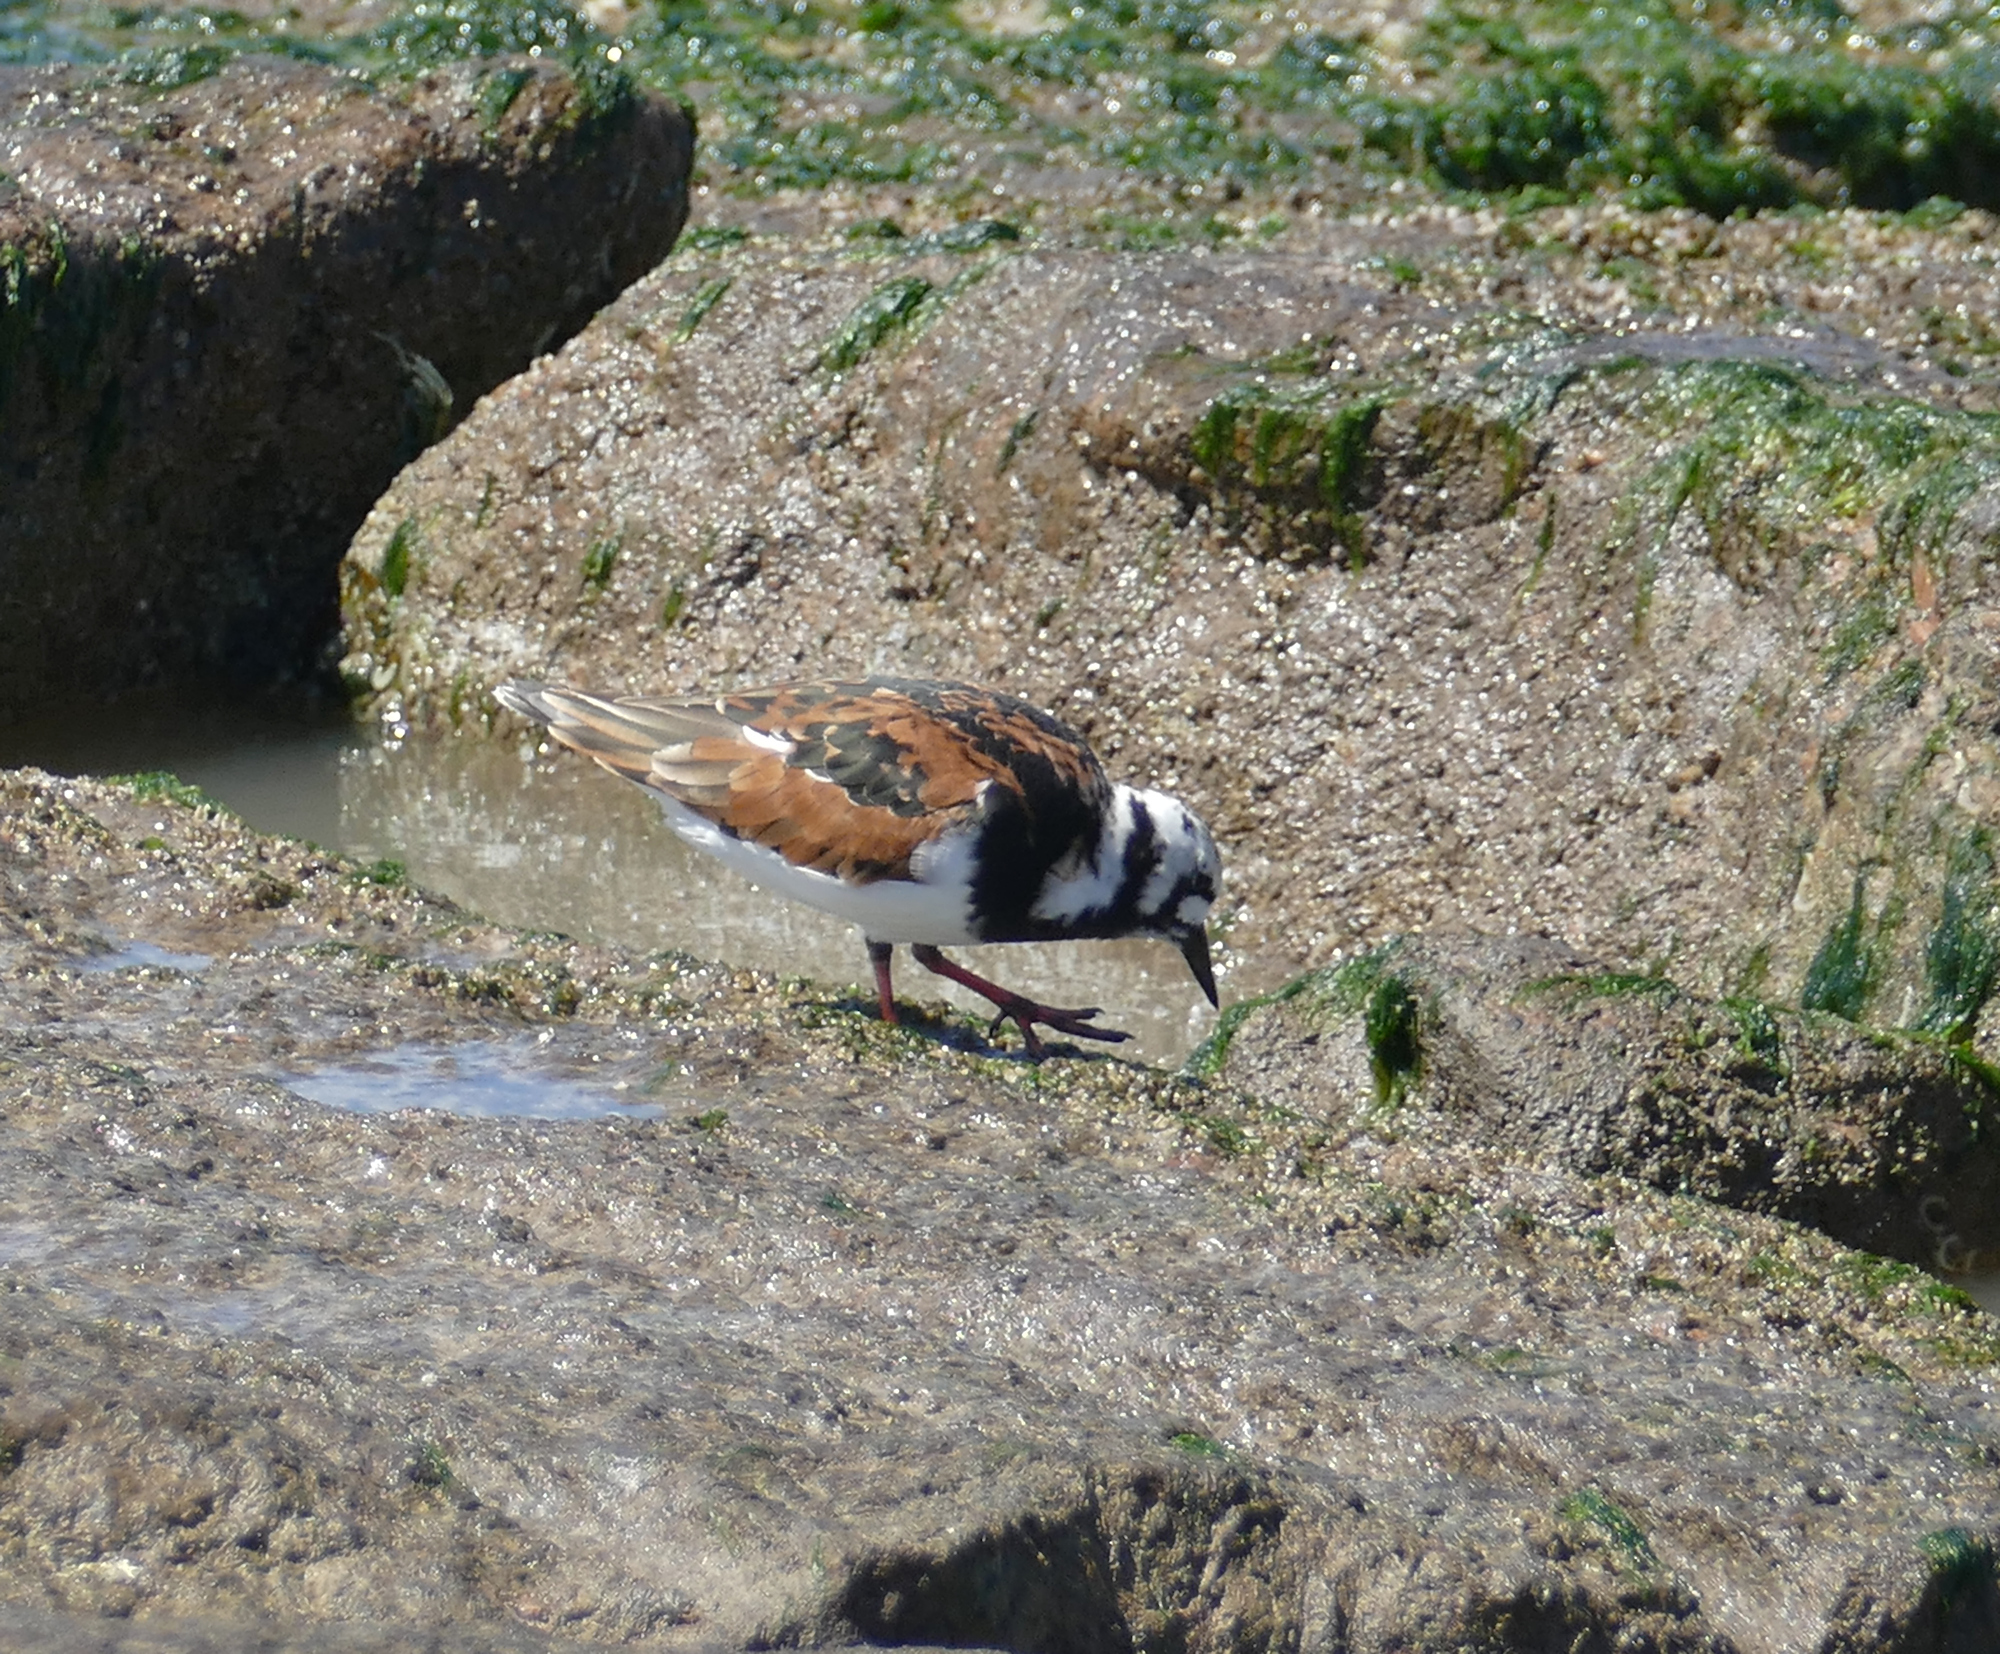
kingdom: Animalia
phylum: Chordata
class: Aves
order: Charadriiformes
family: Scolopacidae
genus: Arenaria
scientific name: Arenaria interpres
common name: Ruddy turnstone
